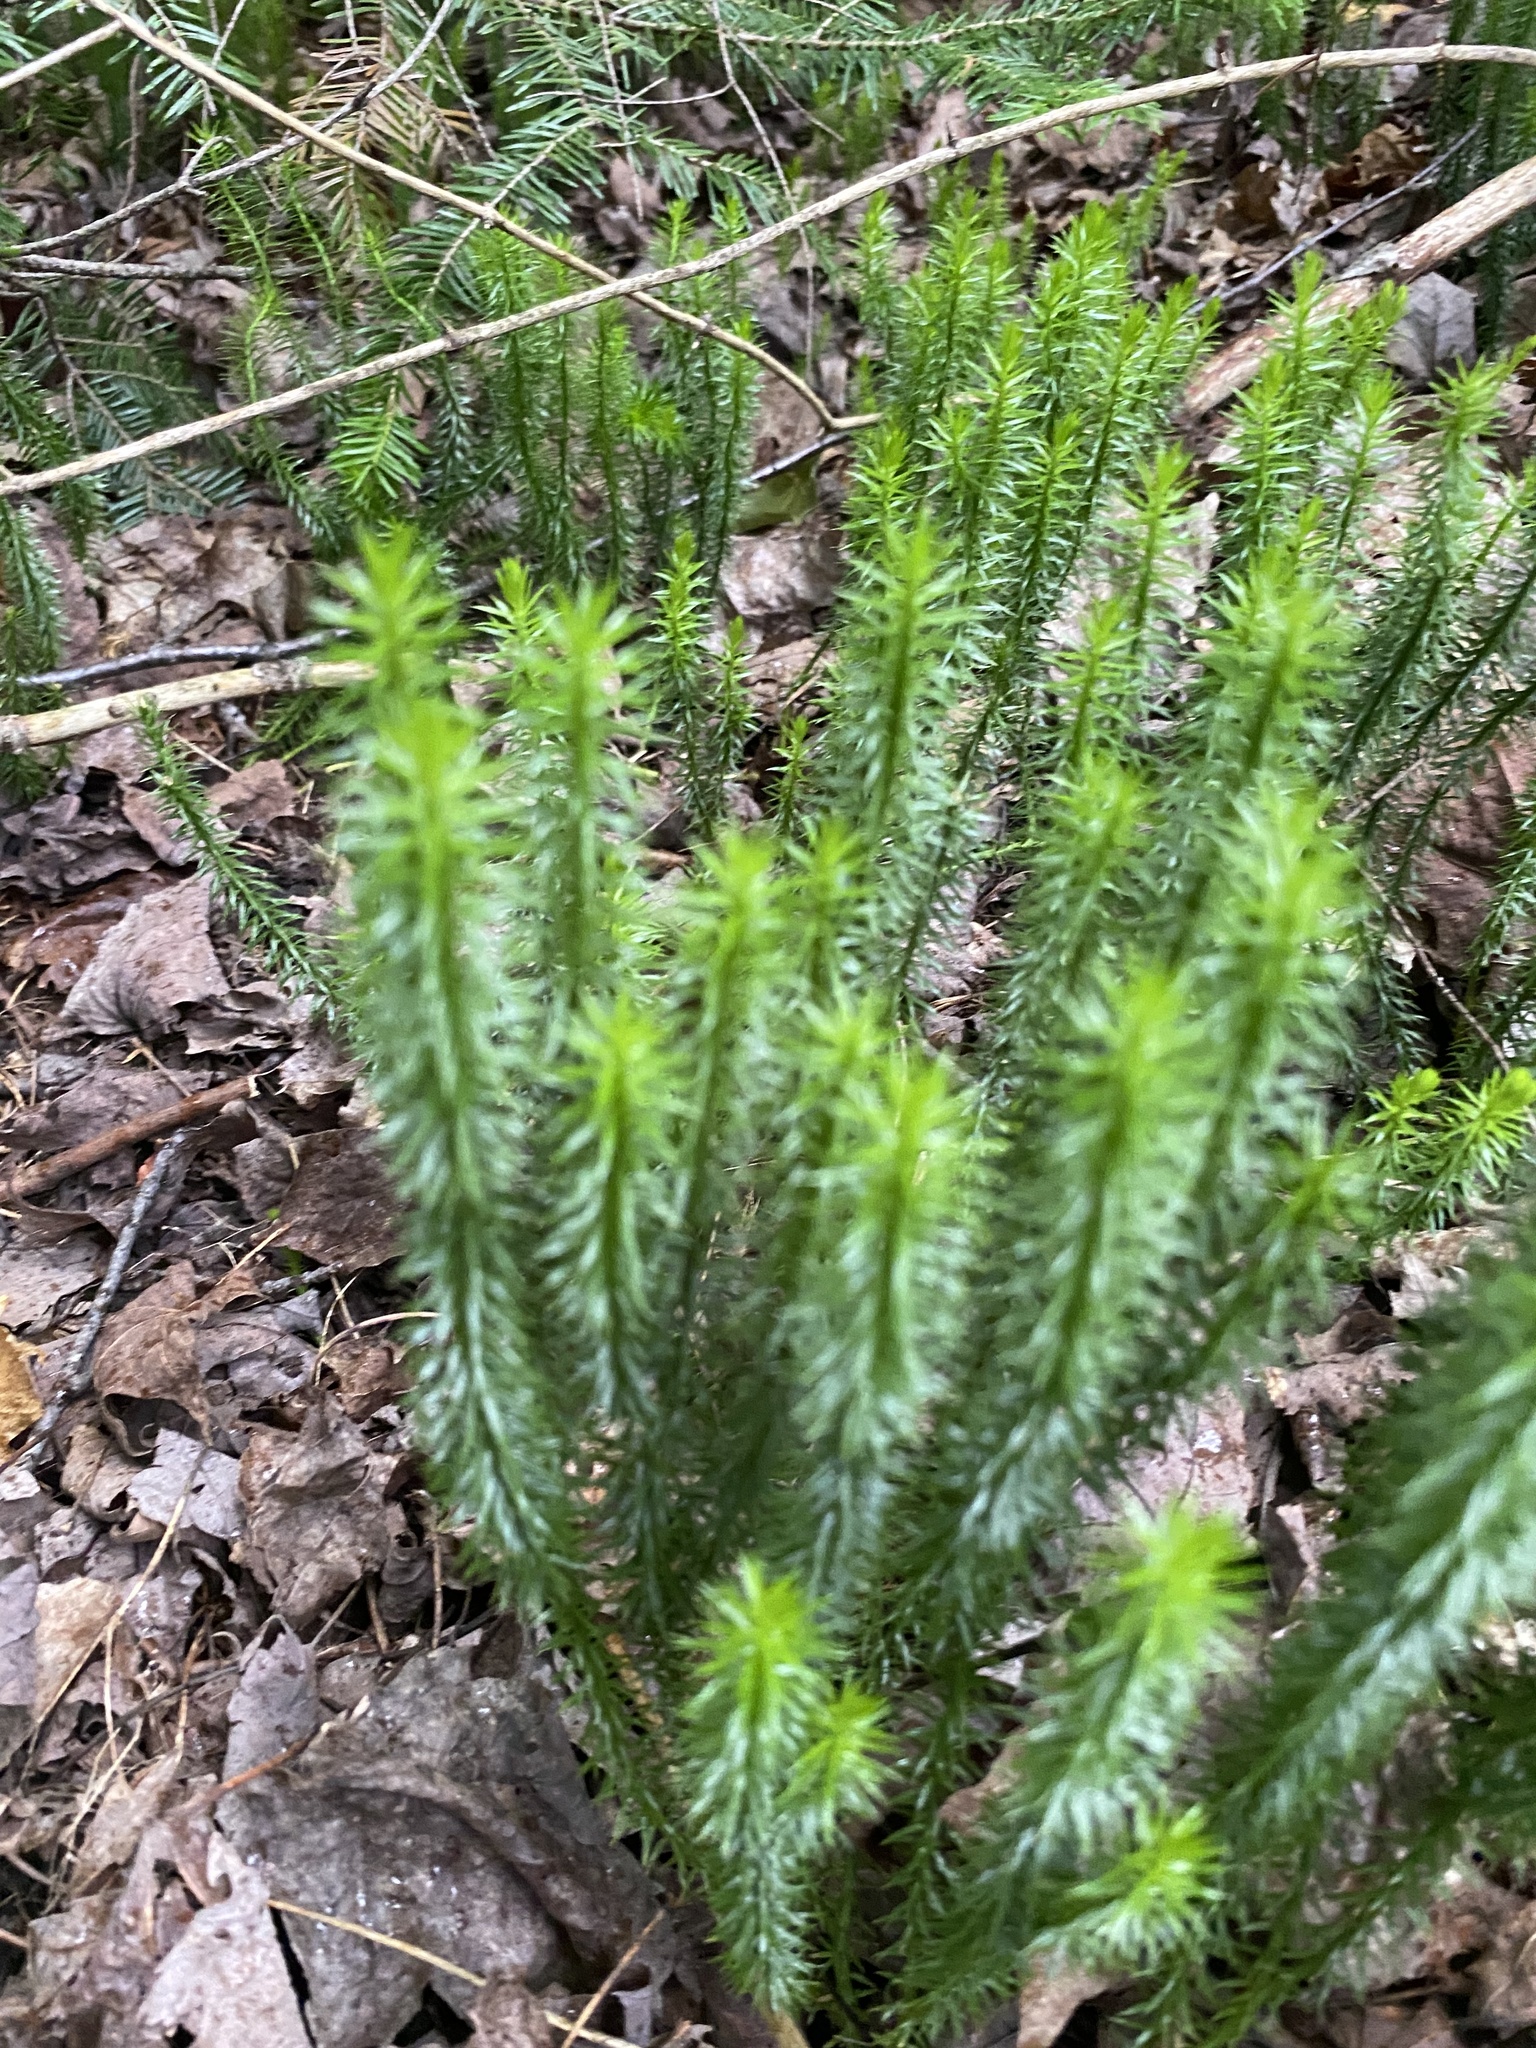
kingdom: Plantae
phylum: Tracheophyta
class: Lycopodiopsida
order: Lycopodiales
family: Lycopodiaceae
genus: Spinulum
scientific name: Spinulum annotinum
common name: Interrupted club-moss
